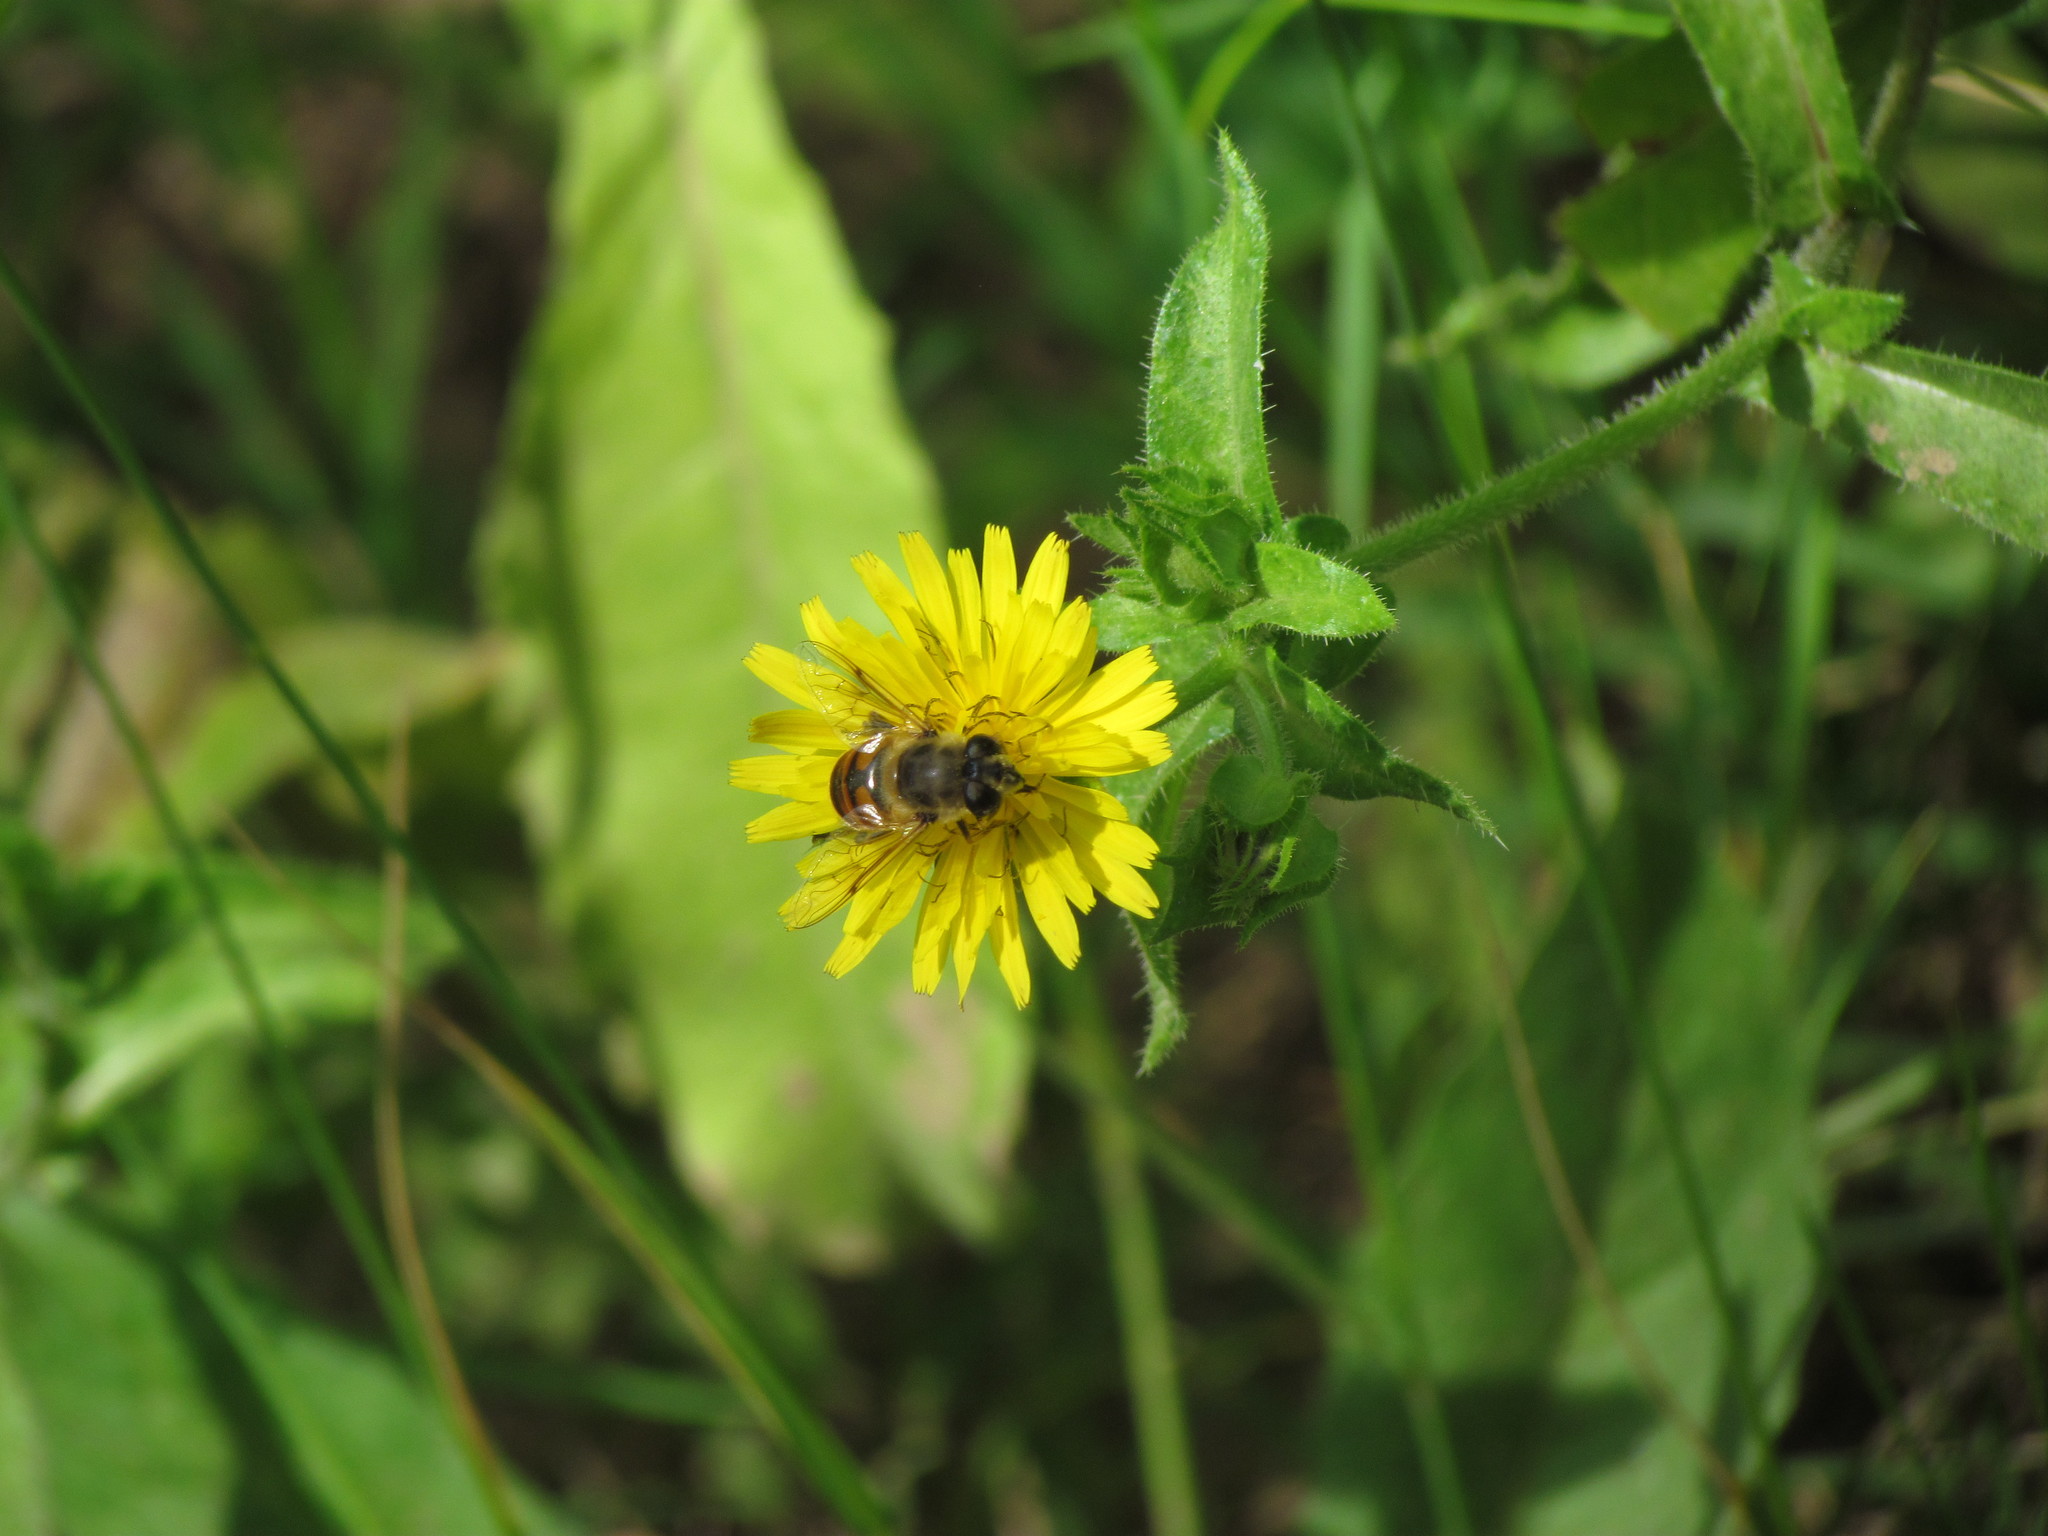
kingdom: Animalia
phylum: Arthropoda
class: Insecta
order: Diptera
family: Syrphidae
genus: Eristalis
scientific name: Eristalis tenax
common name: Drone fly
